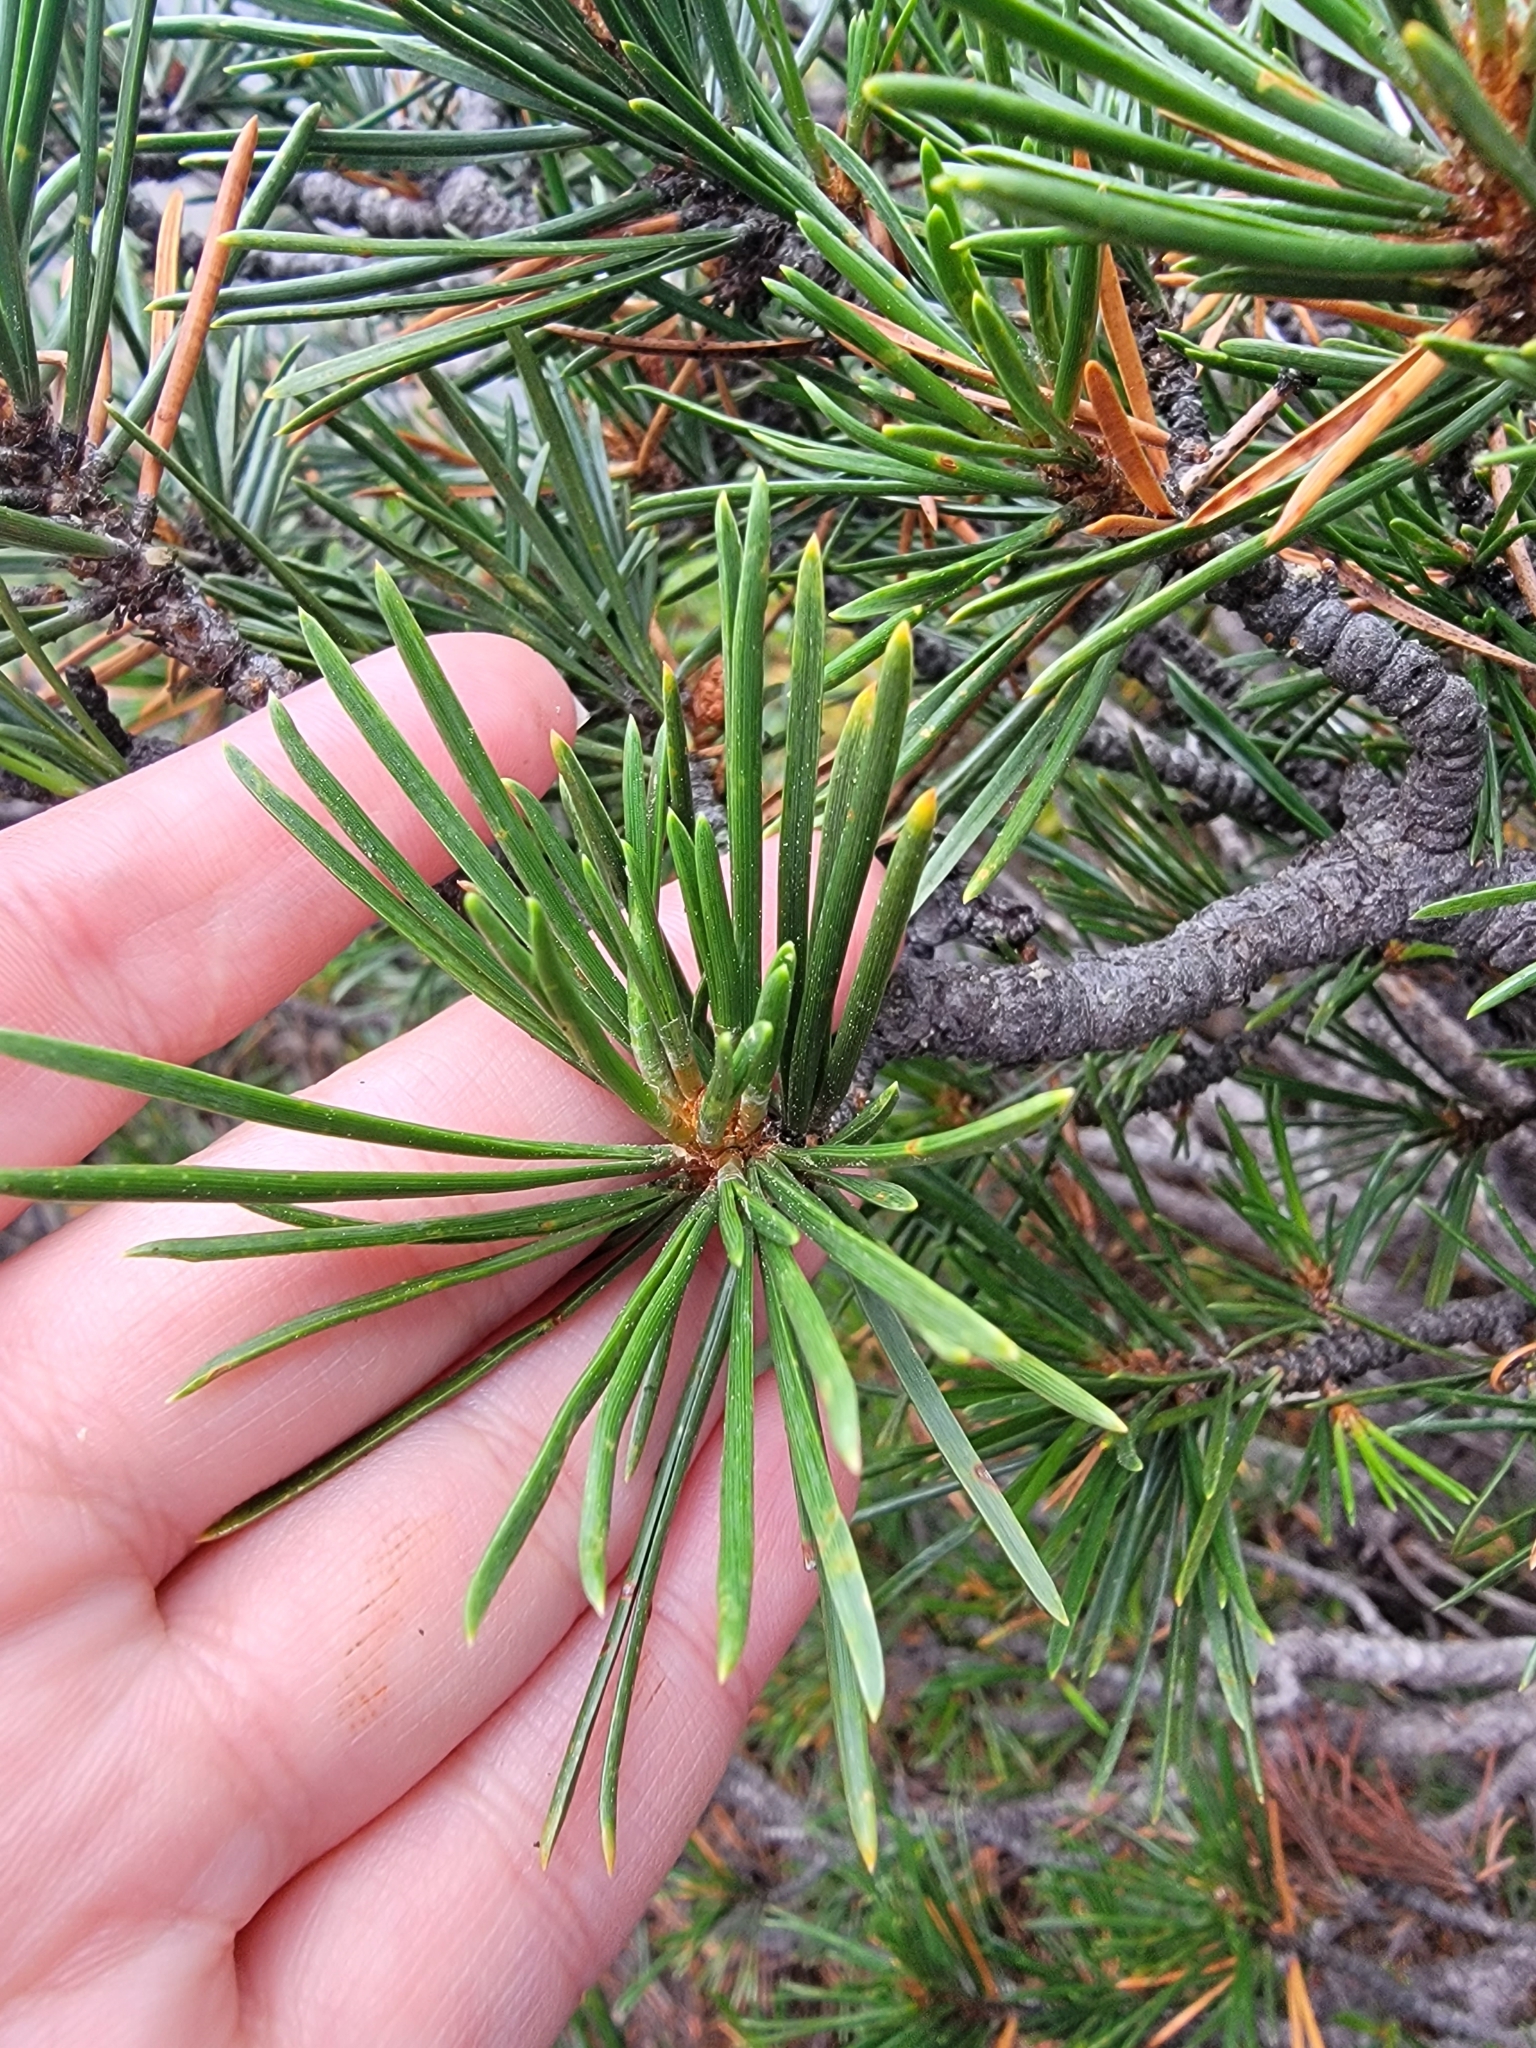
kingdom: Plantae
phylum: Tracheophyta
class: Pinopsida
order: Pinales
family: Pinaceae
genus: Pinus
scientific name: Pinus contorta
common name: Lodgepole pine
